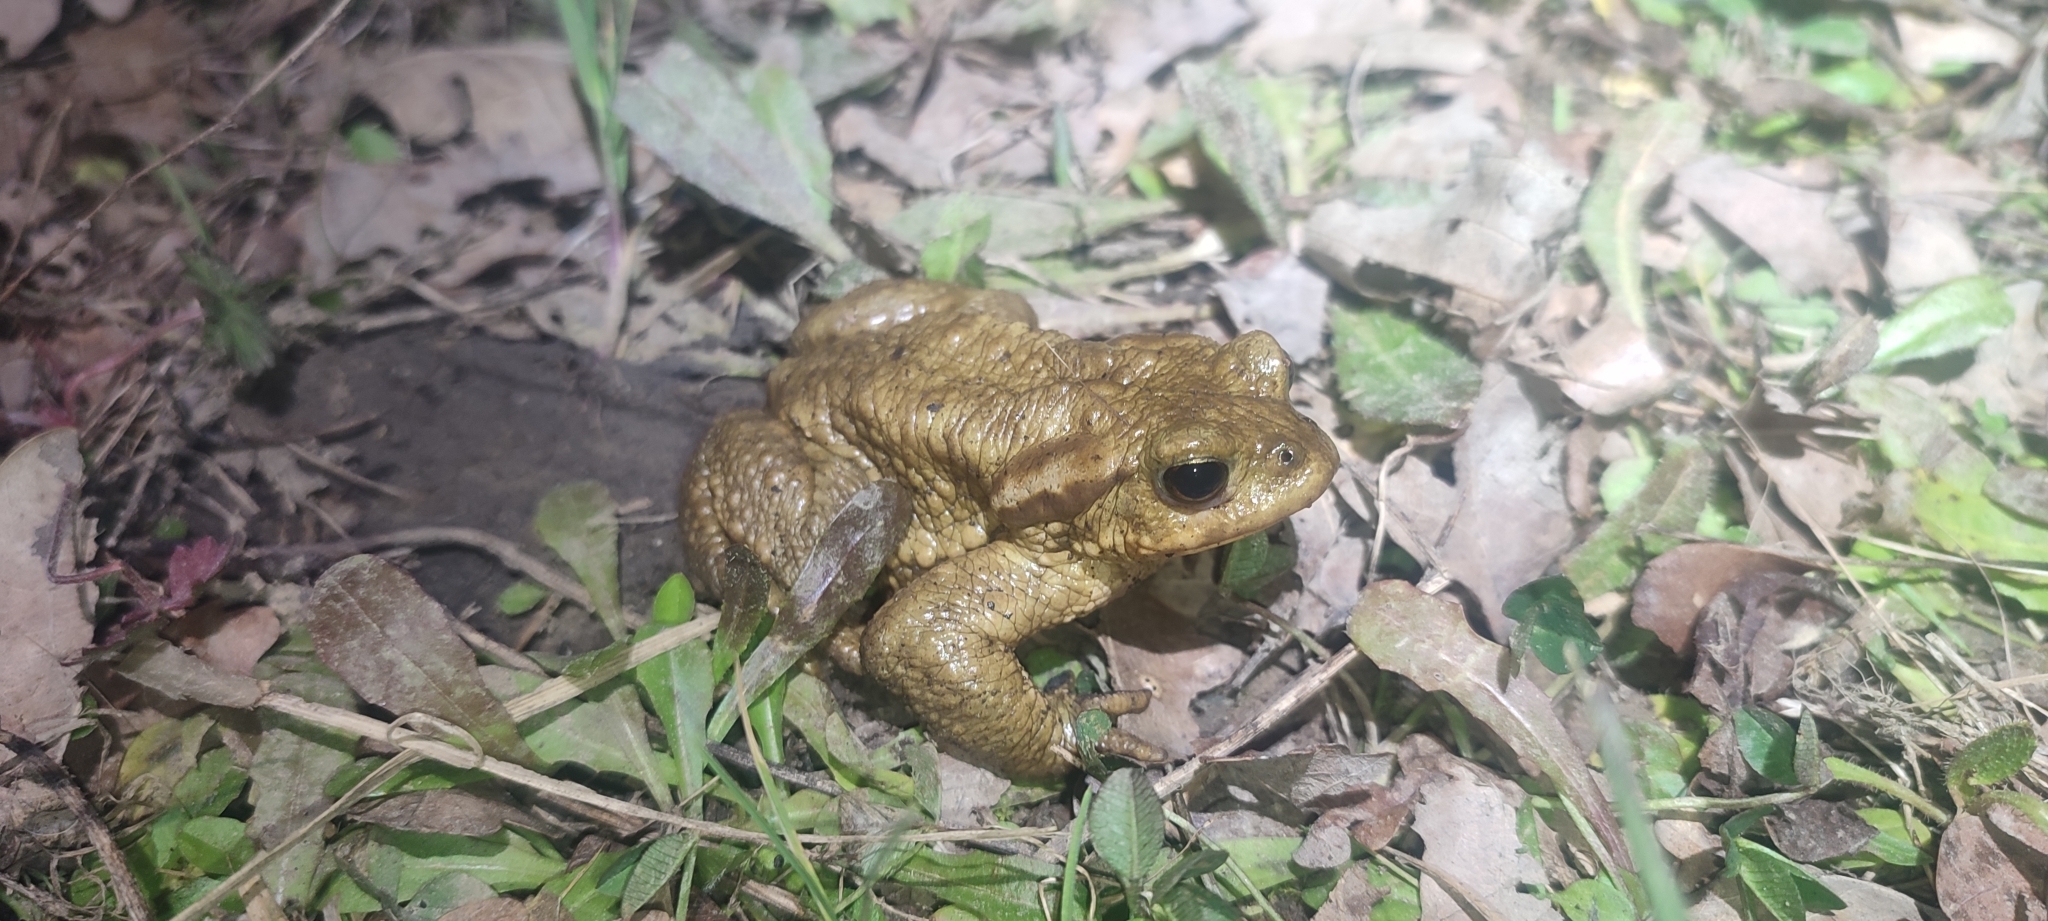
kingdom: Animalia
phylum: Chordata
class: Amphibia
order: Anura
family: Bufonidae
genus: Bufo
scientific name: Bufo spinosus
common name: Western common toad
